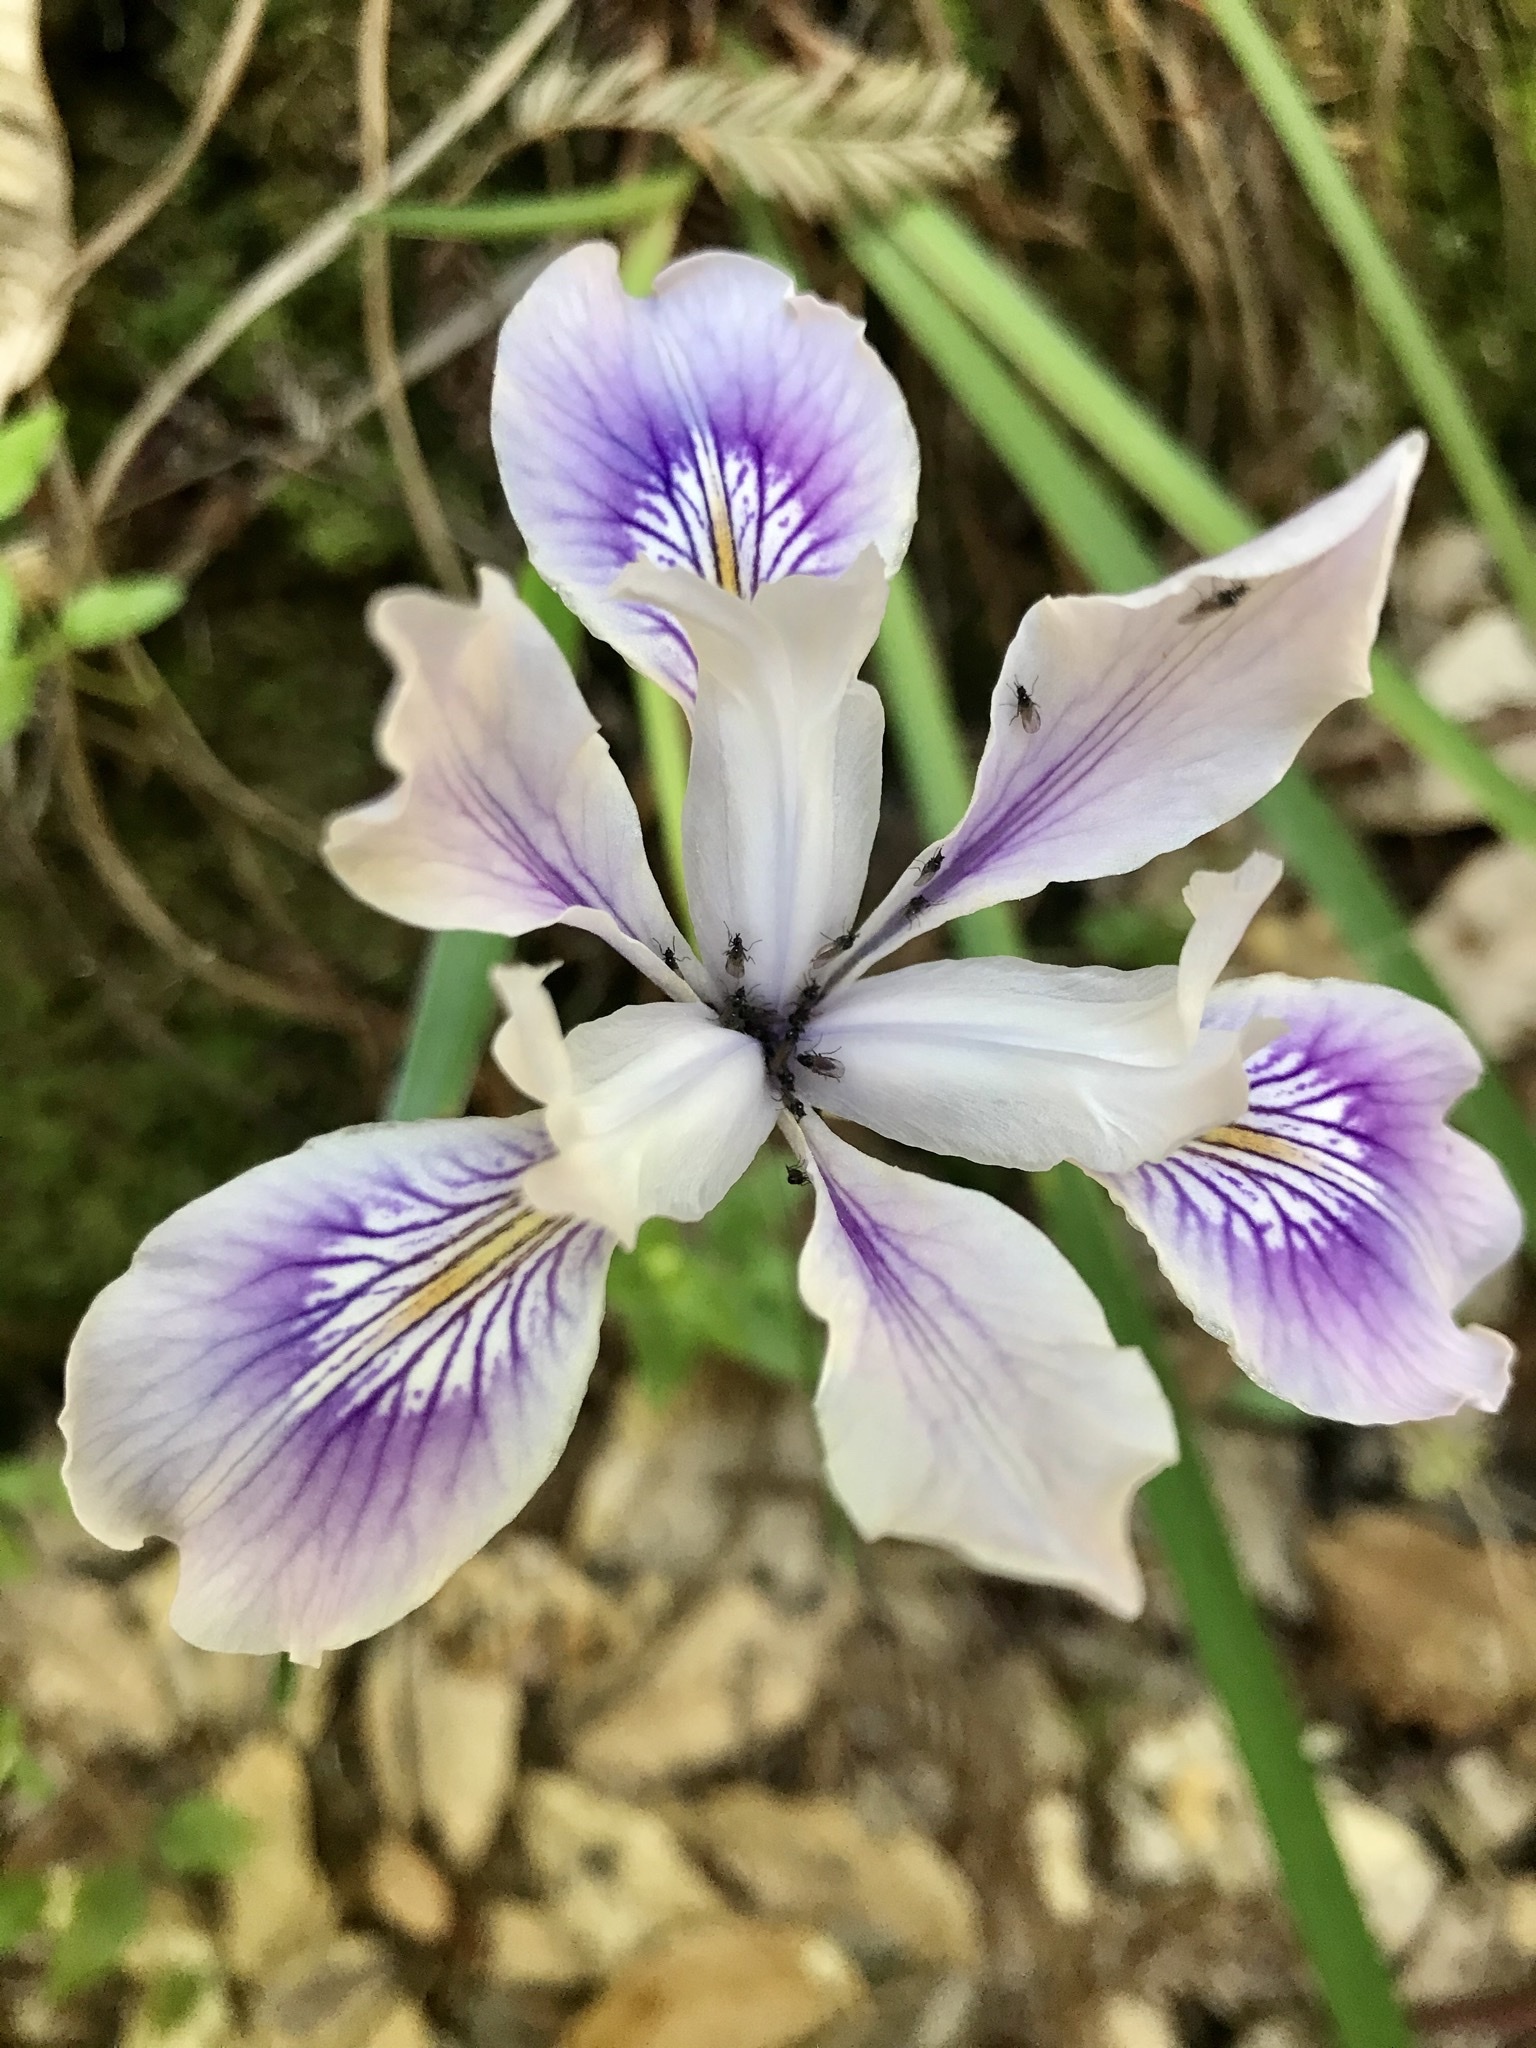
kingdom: Plantae
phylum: Tracheophyta
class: Liliopsida
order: Asparagales
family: Iridaceae
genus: Iris
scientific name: Iris douglasiana
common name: Marin iris
